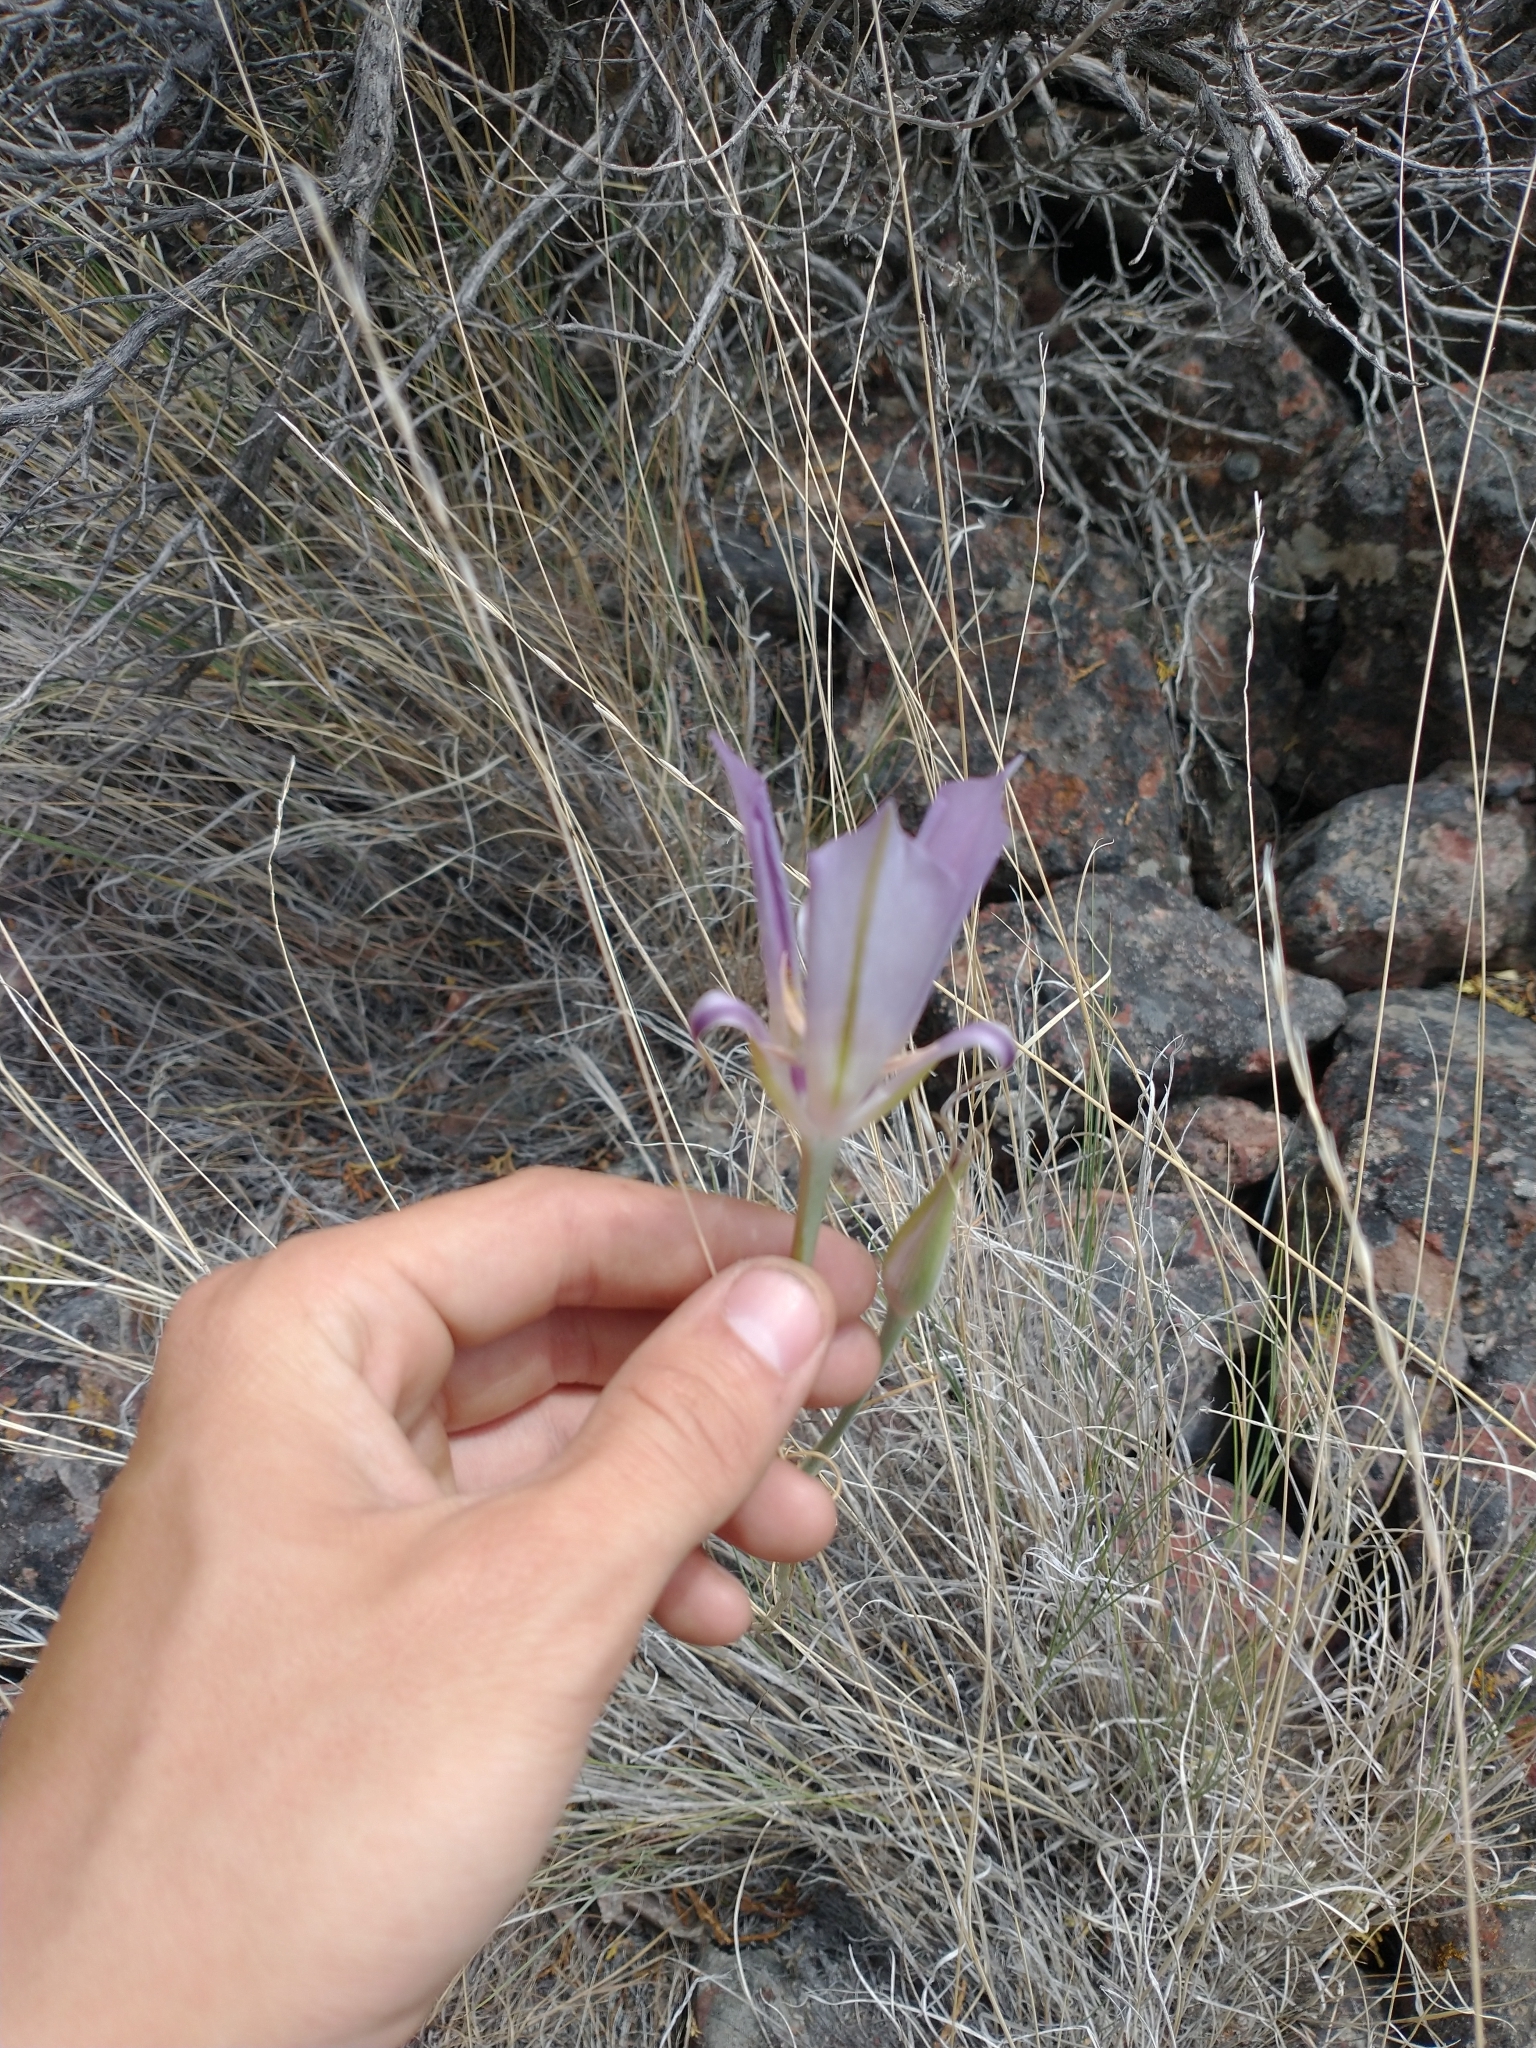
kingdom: Plantae
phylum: Tracheophyta
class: Liliopsida
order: Liliales
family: Liliaceae
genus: Calochortus
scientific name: Calochortus macrocarpus
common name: Green-band mariposa lily
